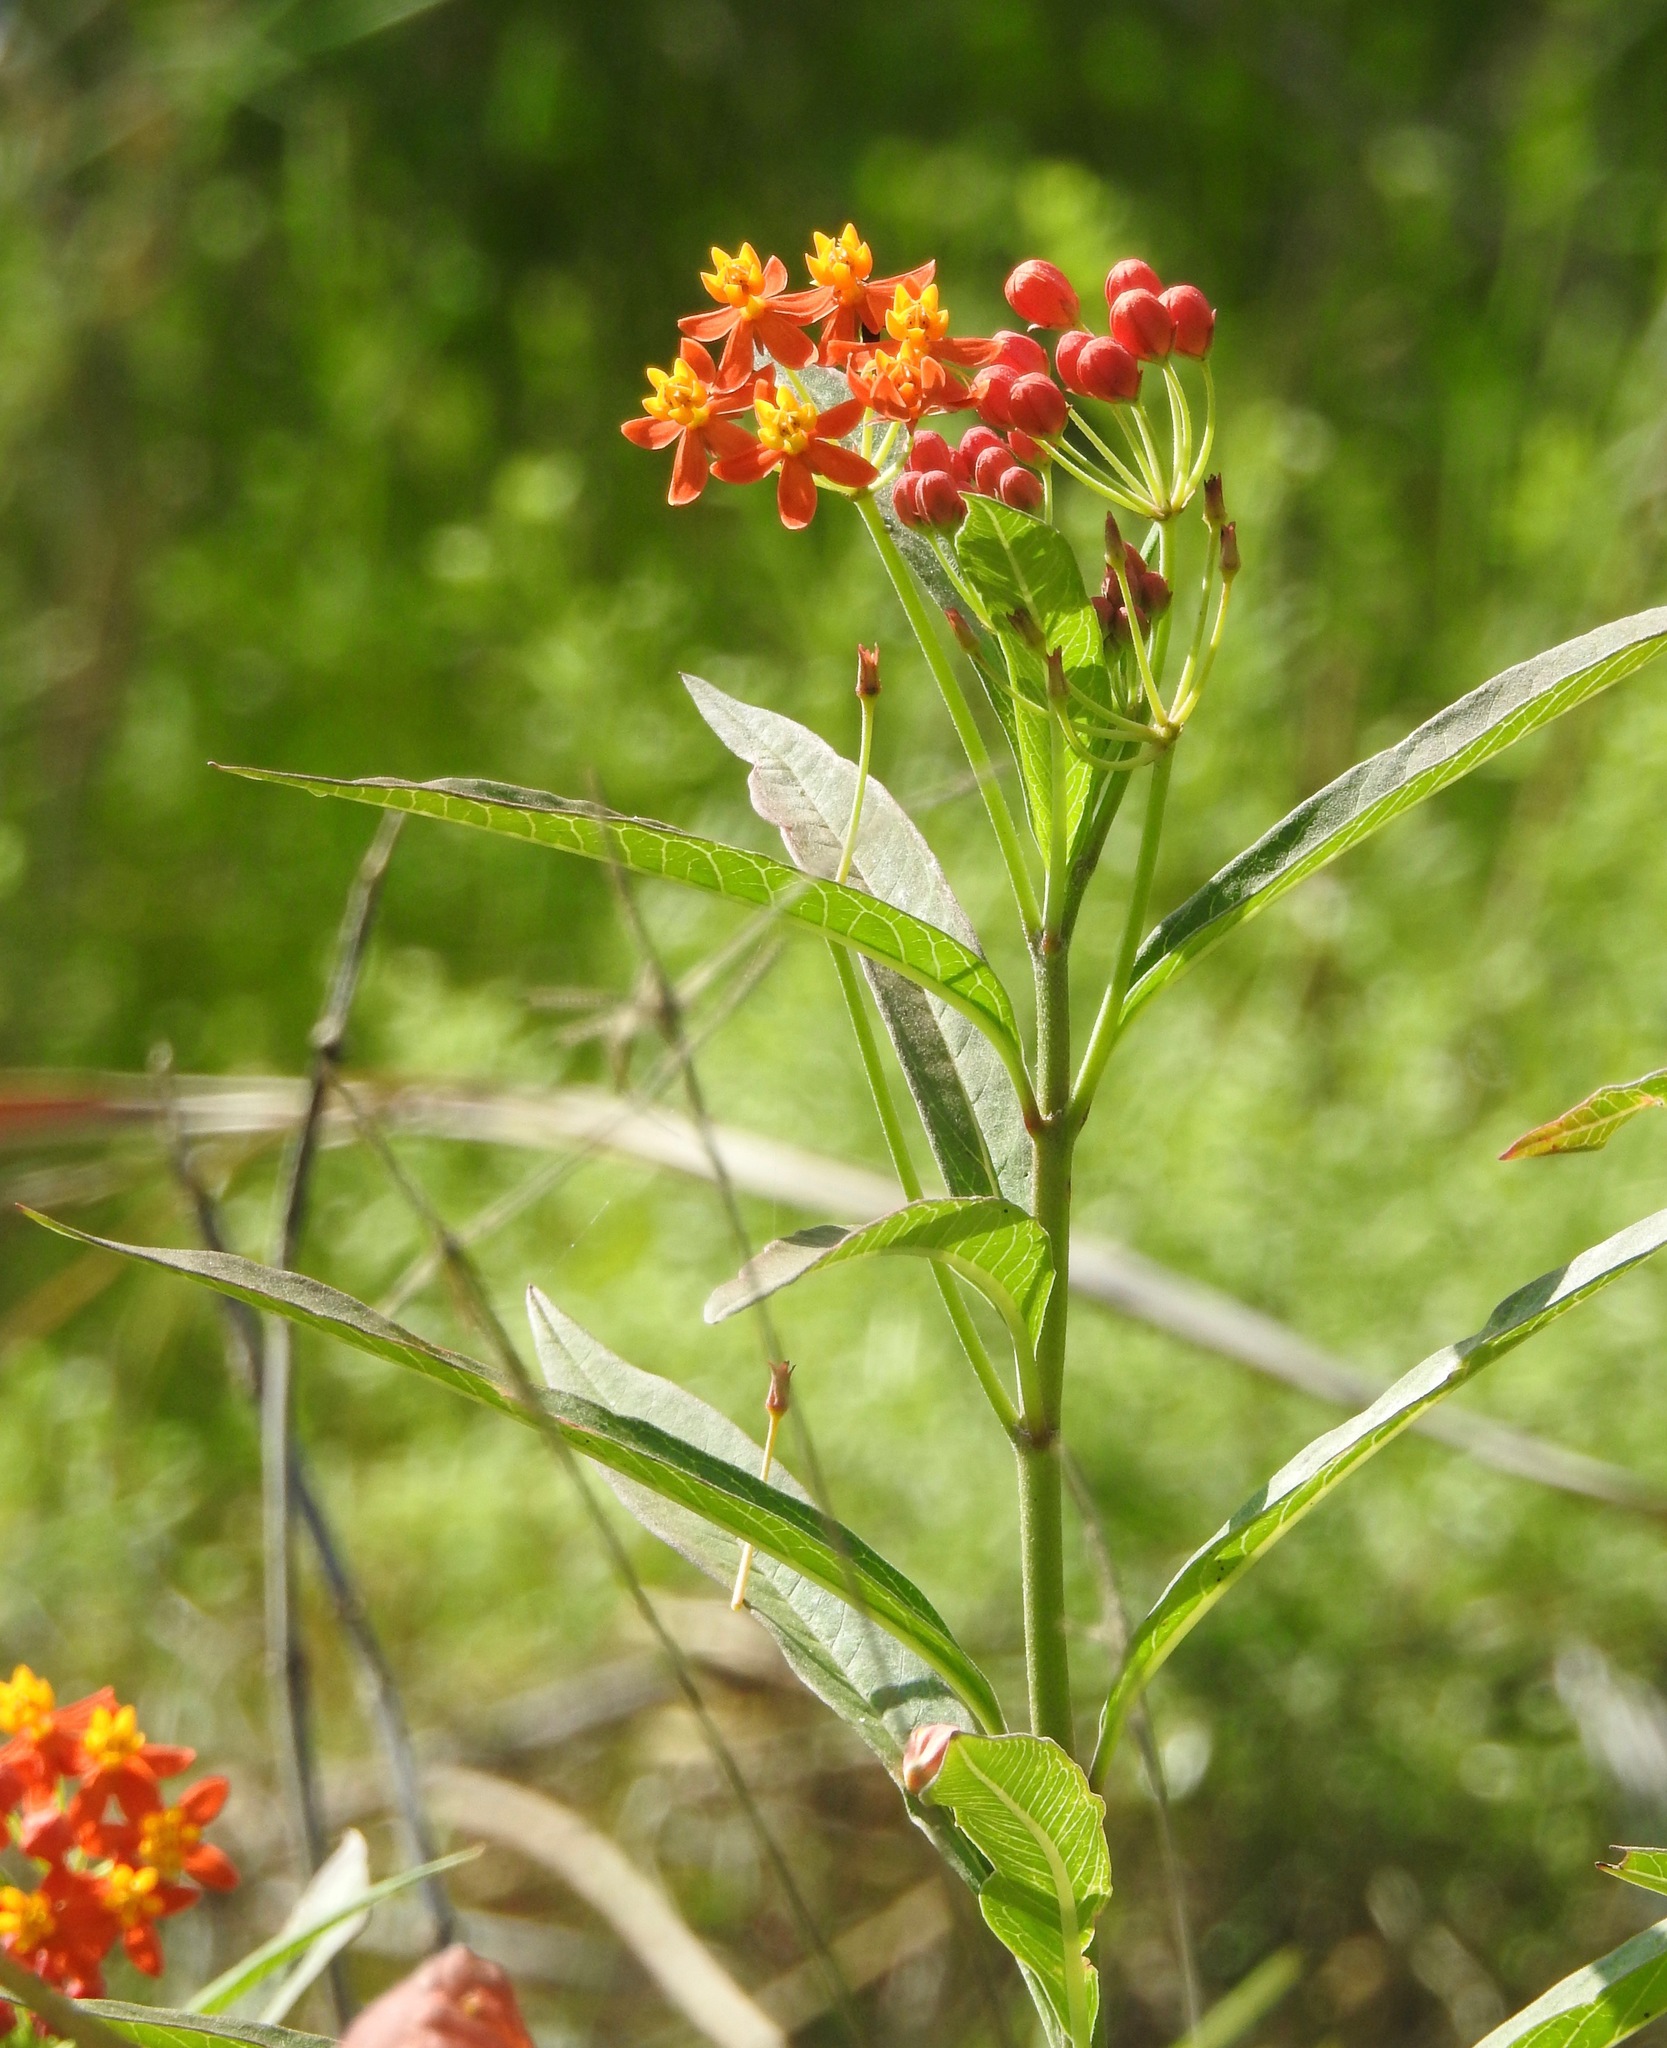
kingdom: Plantae
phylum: Tracheophyta
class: Magnoliopsida
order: Gentianales
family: Apocynaceae
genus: Asclepias
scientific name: Asclepias curassavica
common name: Bloodflower
